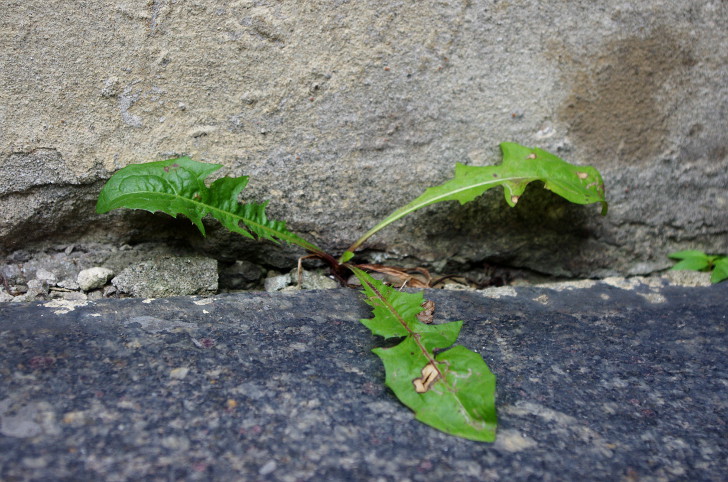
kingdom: Plantae
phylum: Tracheophyta
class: Magnoliopsida
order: Asterales
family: Asteraceae
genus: Taraxacum
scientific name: Taraxacum officinale
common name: Common dandelion
